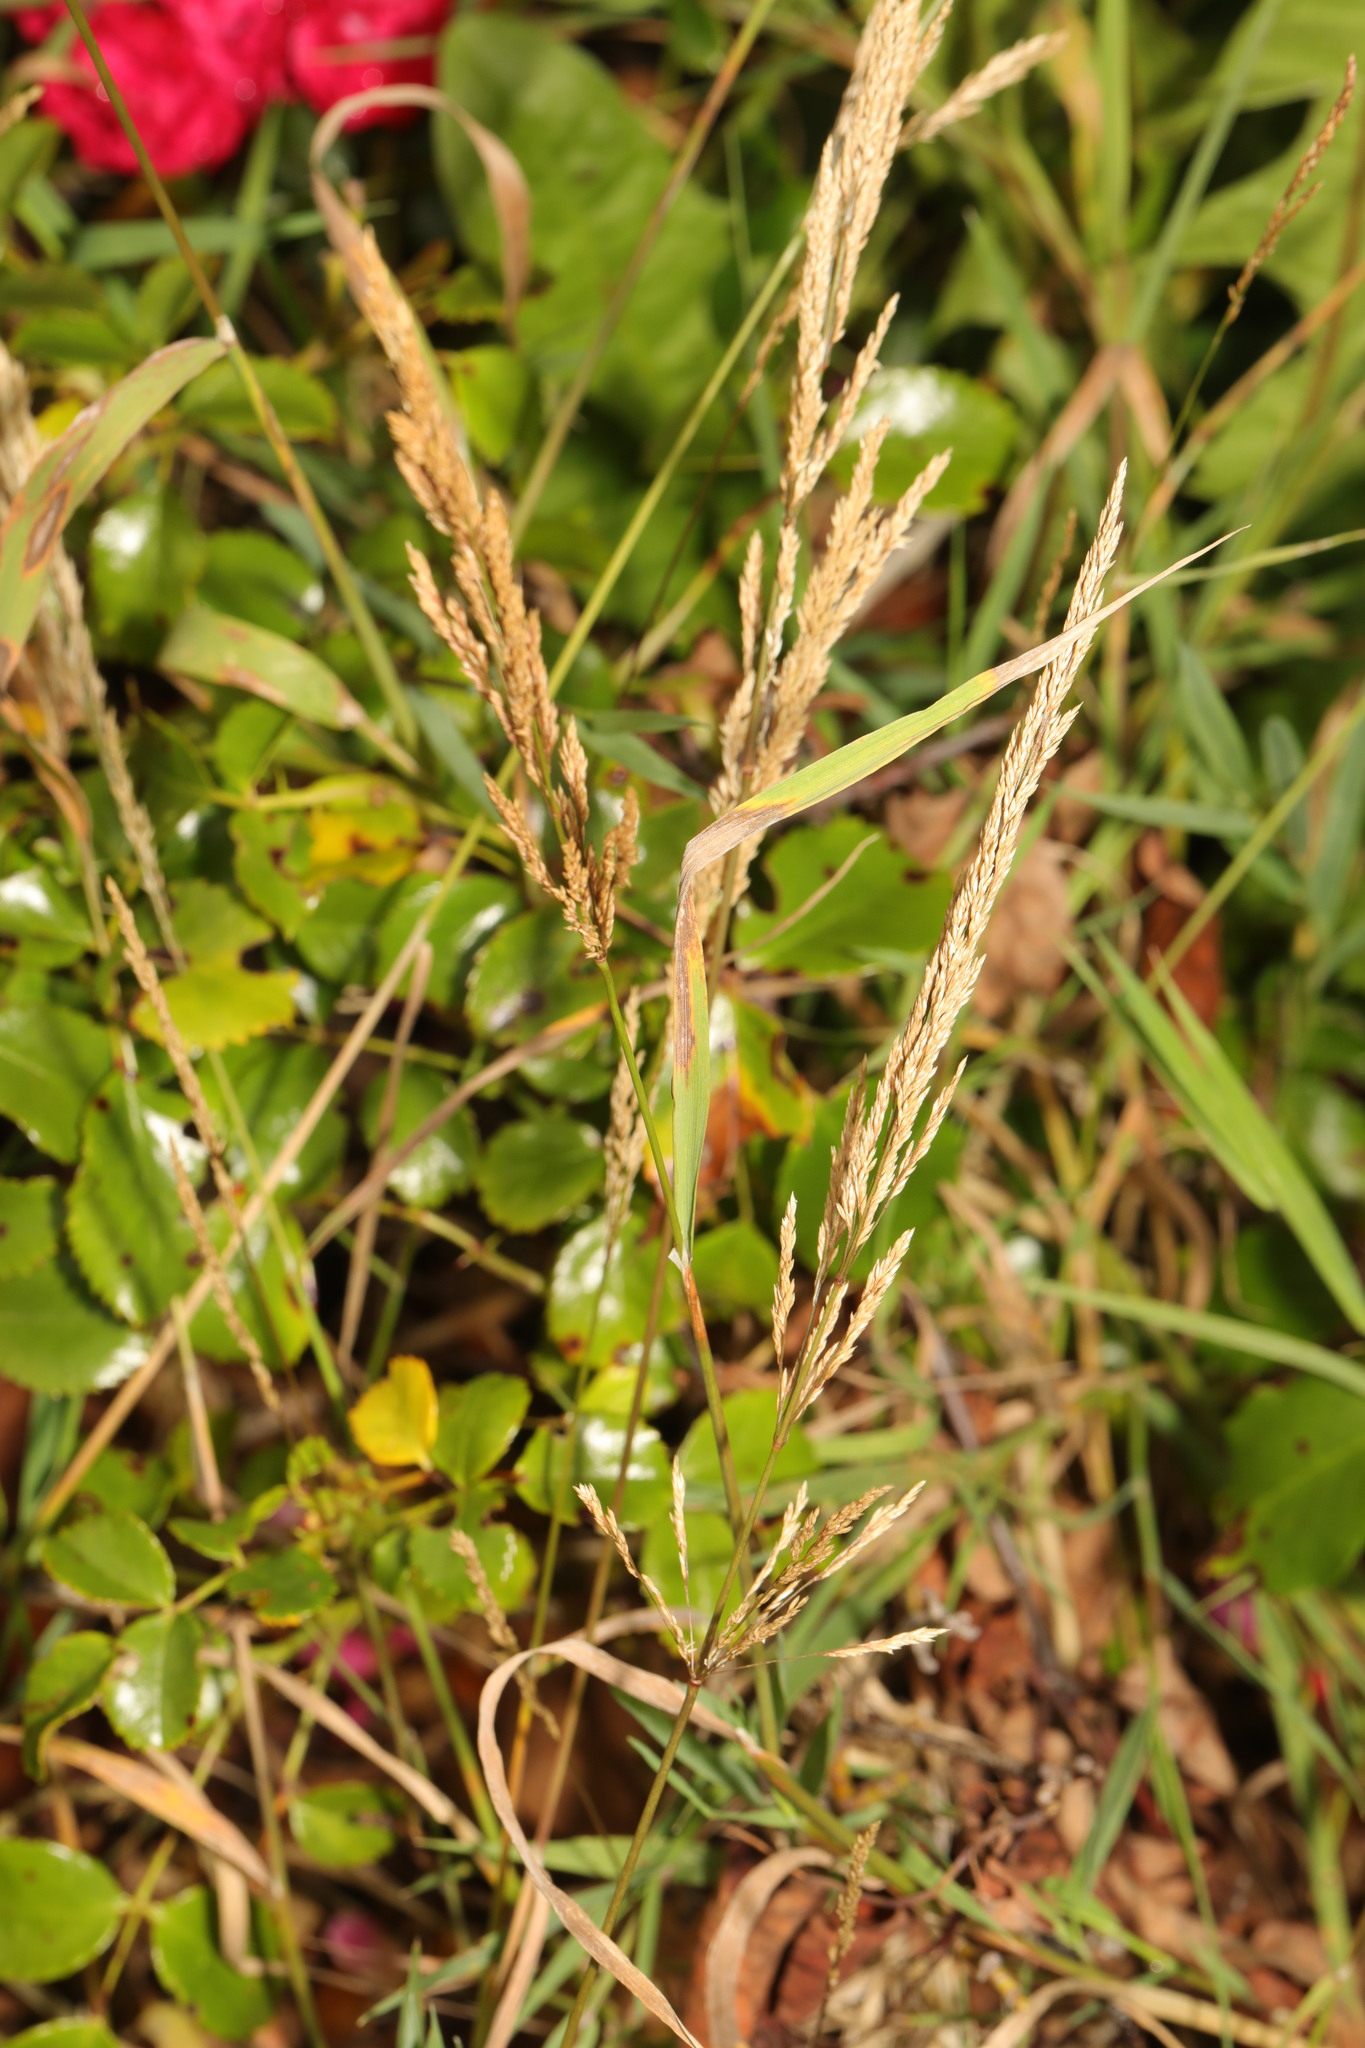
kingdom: Plantae
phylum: Tracheophyta
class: Liliopsida
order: Poales
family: Poaceae
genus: Agrostis
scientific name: Agrostis stolonifera
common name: Creeping bentgrass
